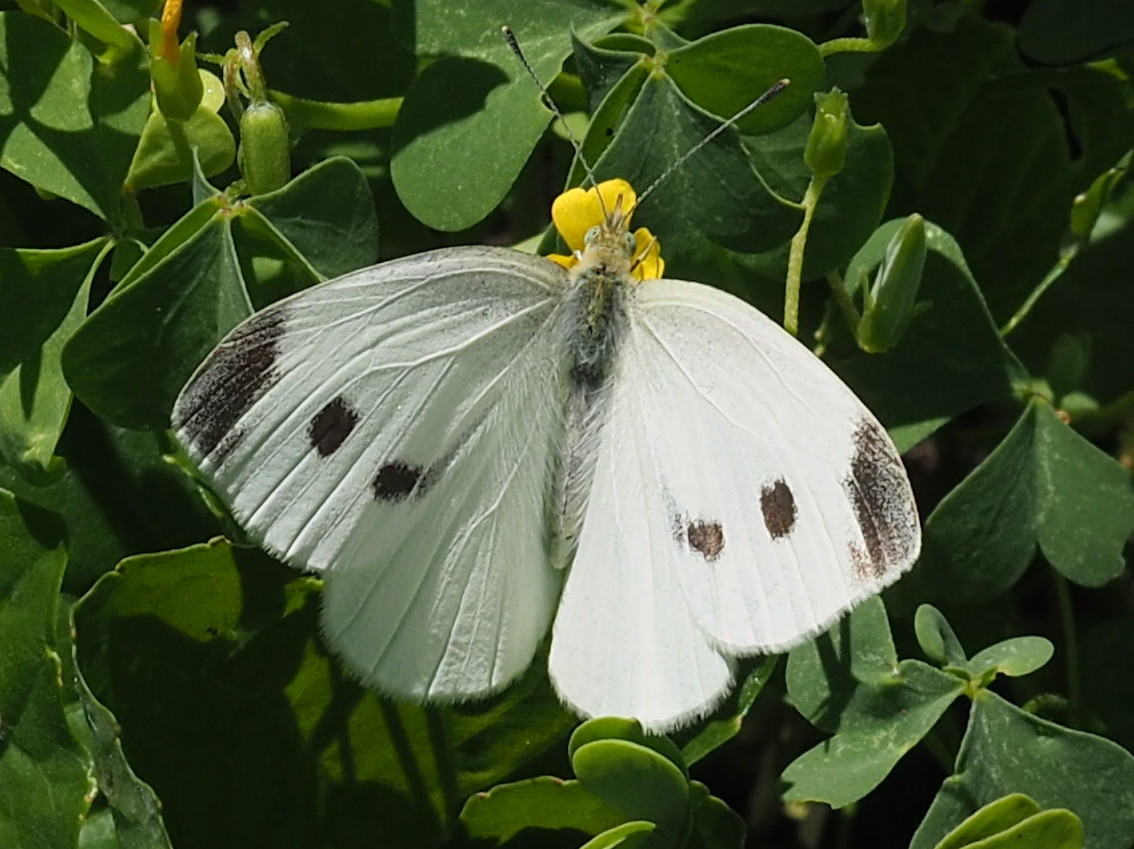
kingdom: Animalia
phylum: Arthropoda
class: Insecta
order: Lepidoptera
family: Pieridae
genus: Pieris
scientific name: Pieris rapae
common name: Small white
